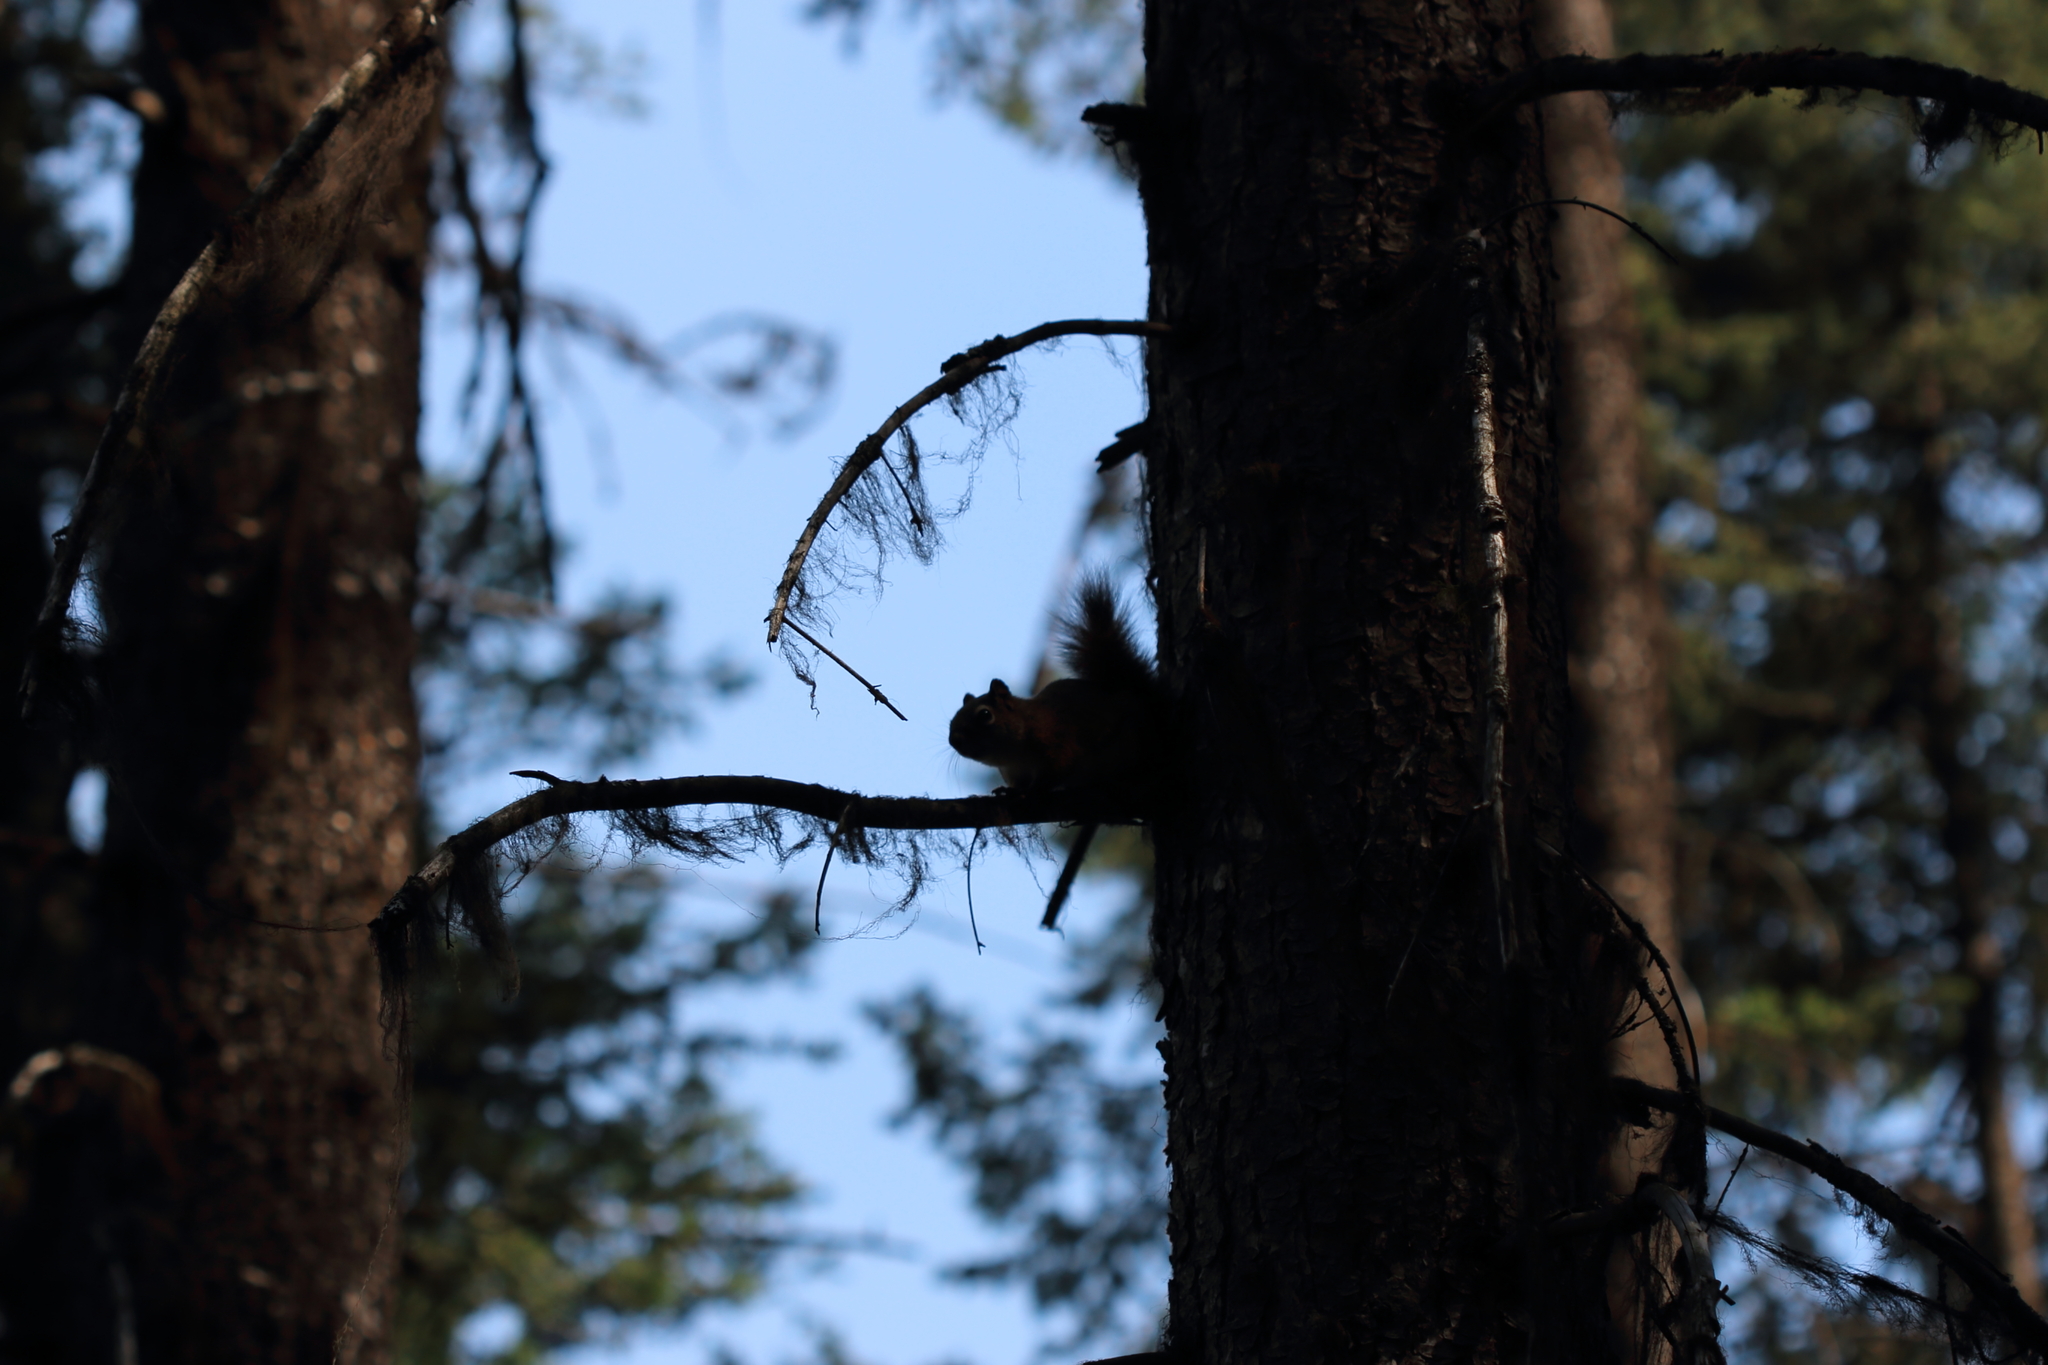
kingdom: Animalia
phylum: Chordata
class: Mammalia
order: Rodentia
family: Sciuridae
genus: Tamiasciurus
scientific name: Tamiasciurus hudsonicus
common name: Red squirrel
